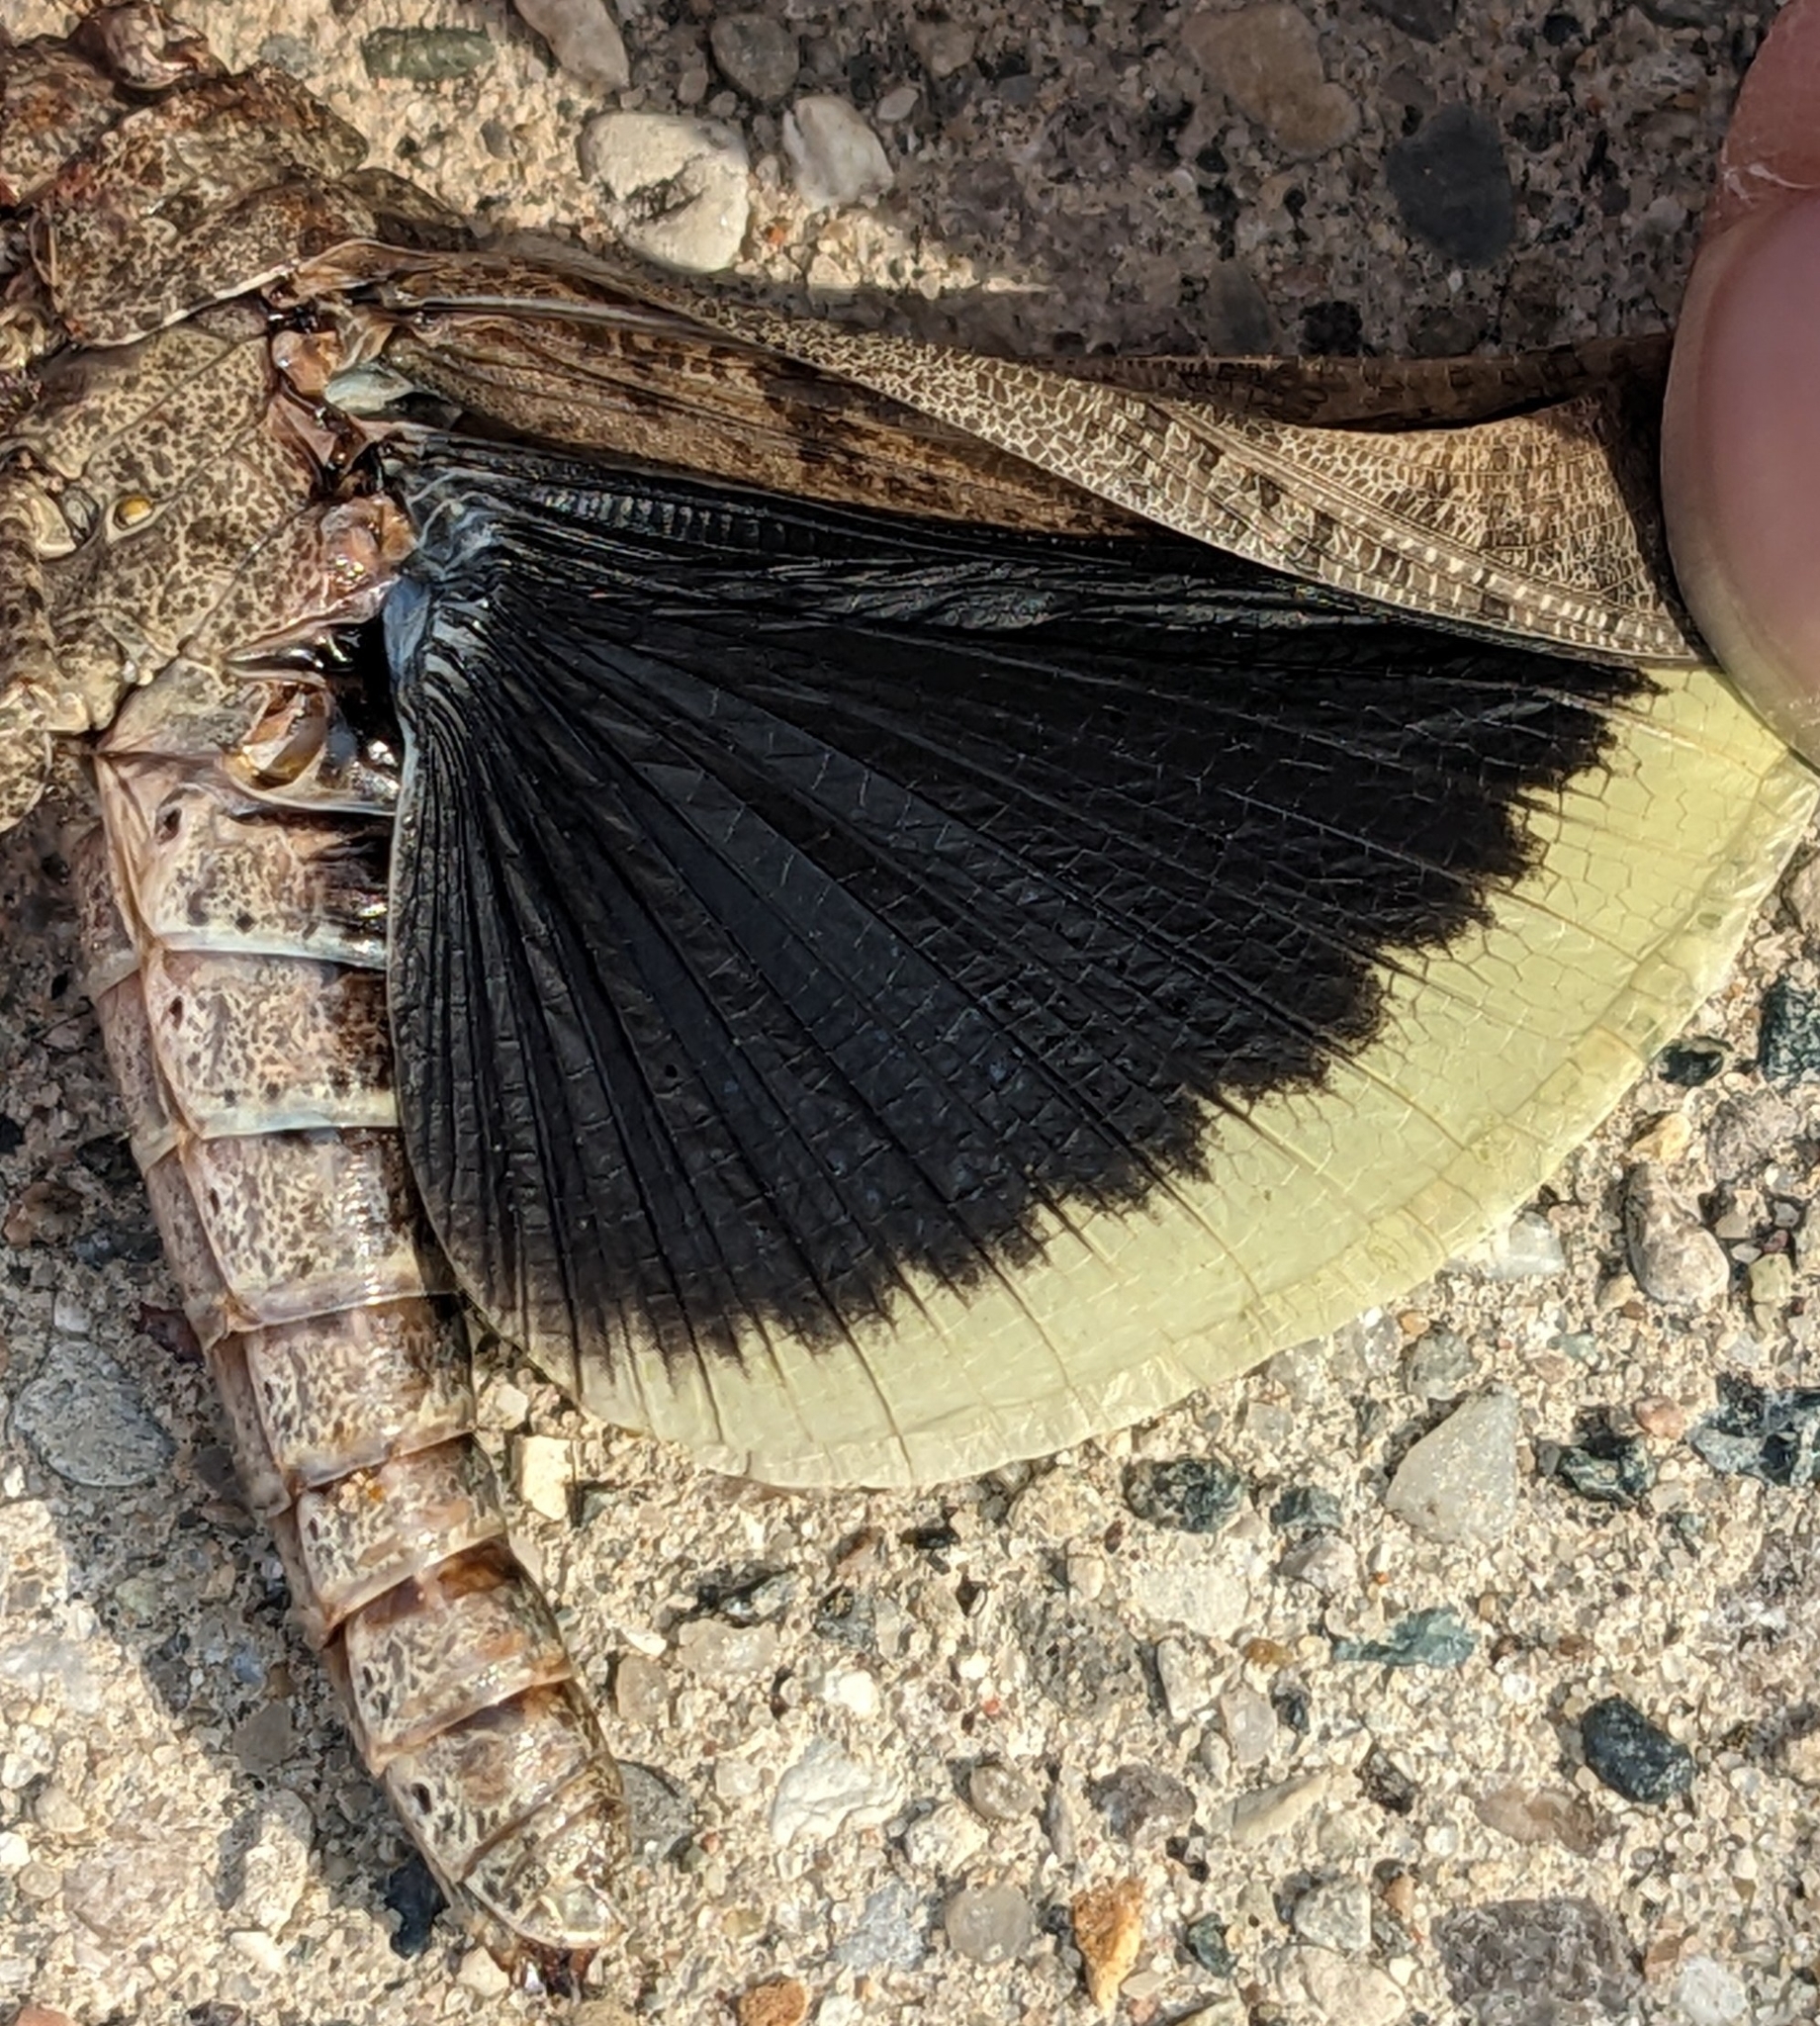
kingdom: Animalia
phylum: Arthropoda
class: Insecta
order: Orthoptera
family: Acrididae
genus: Dissosteira
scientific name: Dissosteira carolina
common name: Carolina grasshopper
